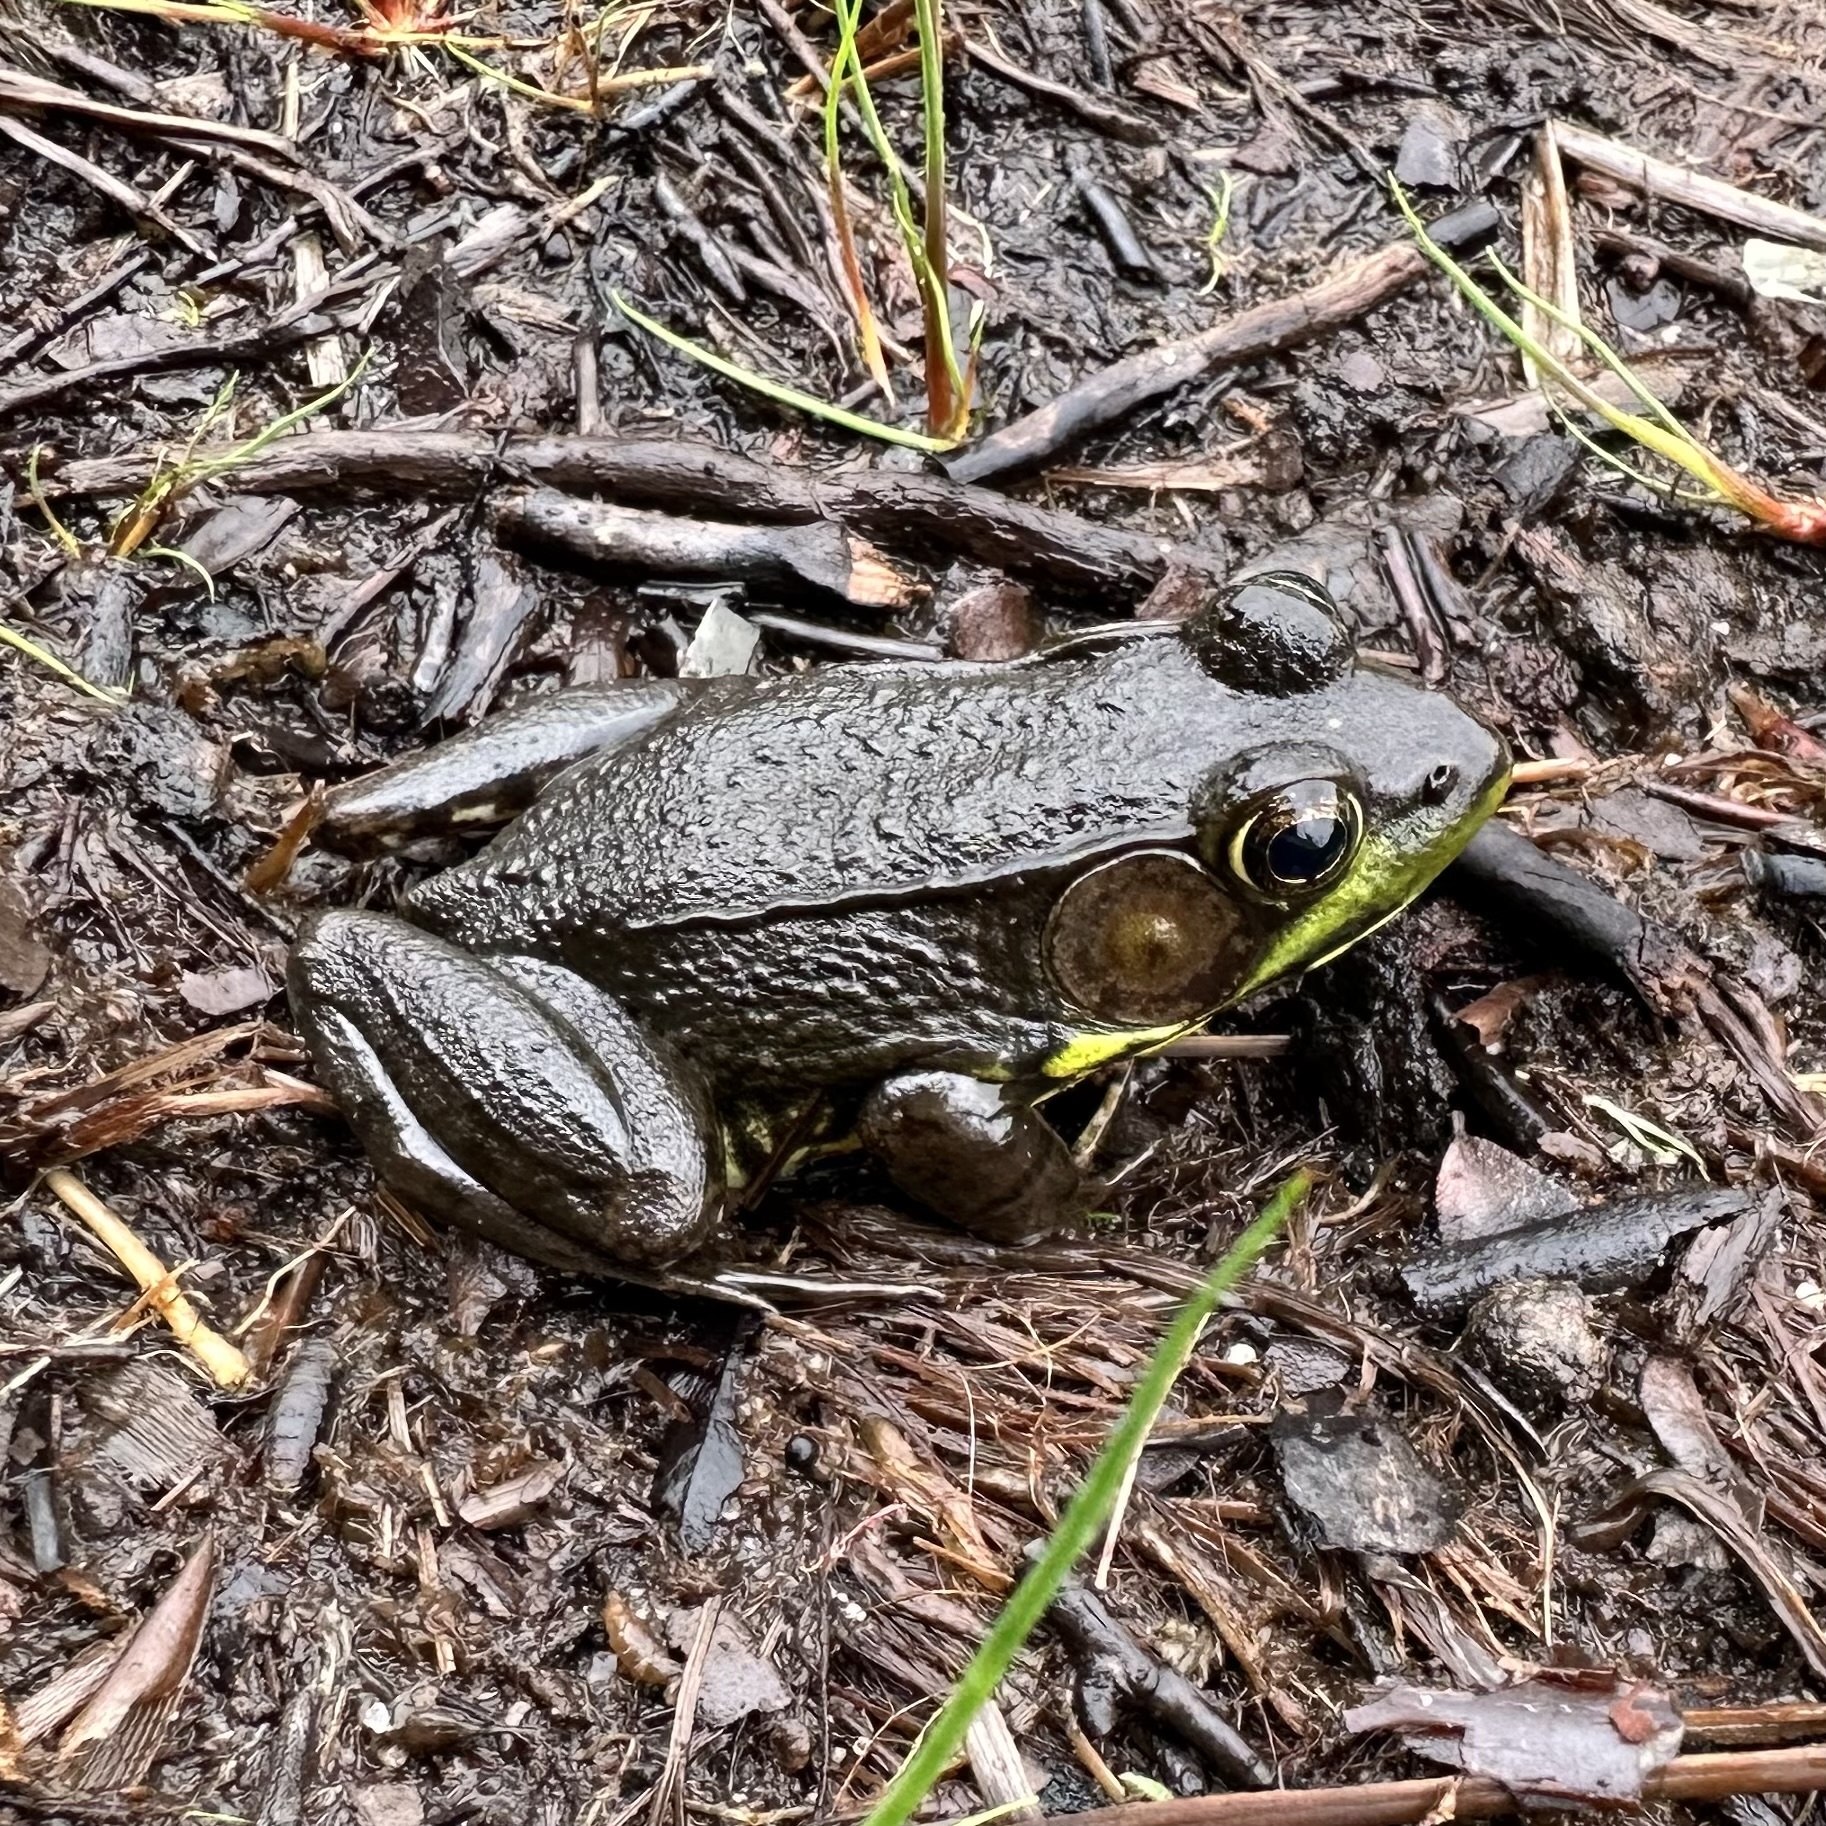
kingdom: Animalia
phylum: Chordata
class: Amphibia
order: Anura
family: Ranidae
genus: Lithobates
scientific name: Lithobates clamitans
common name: Green frog
